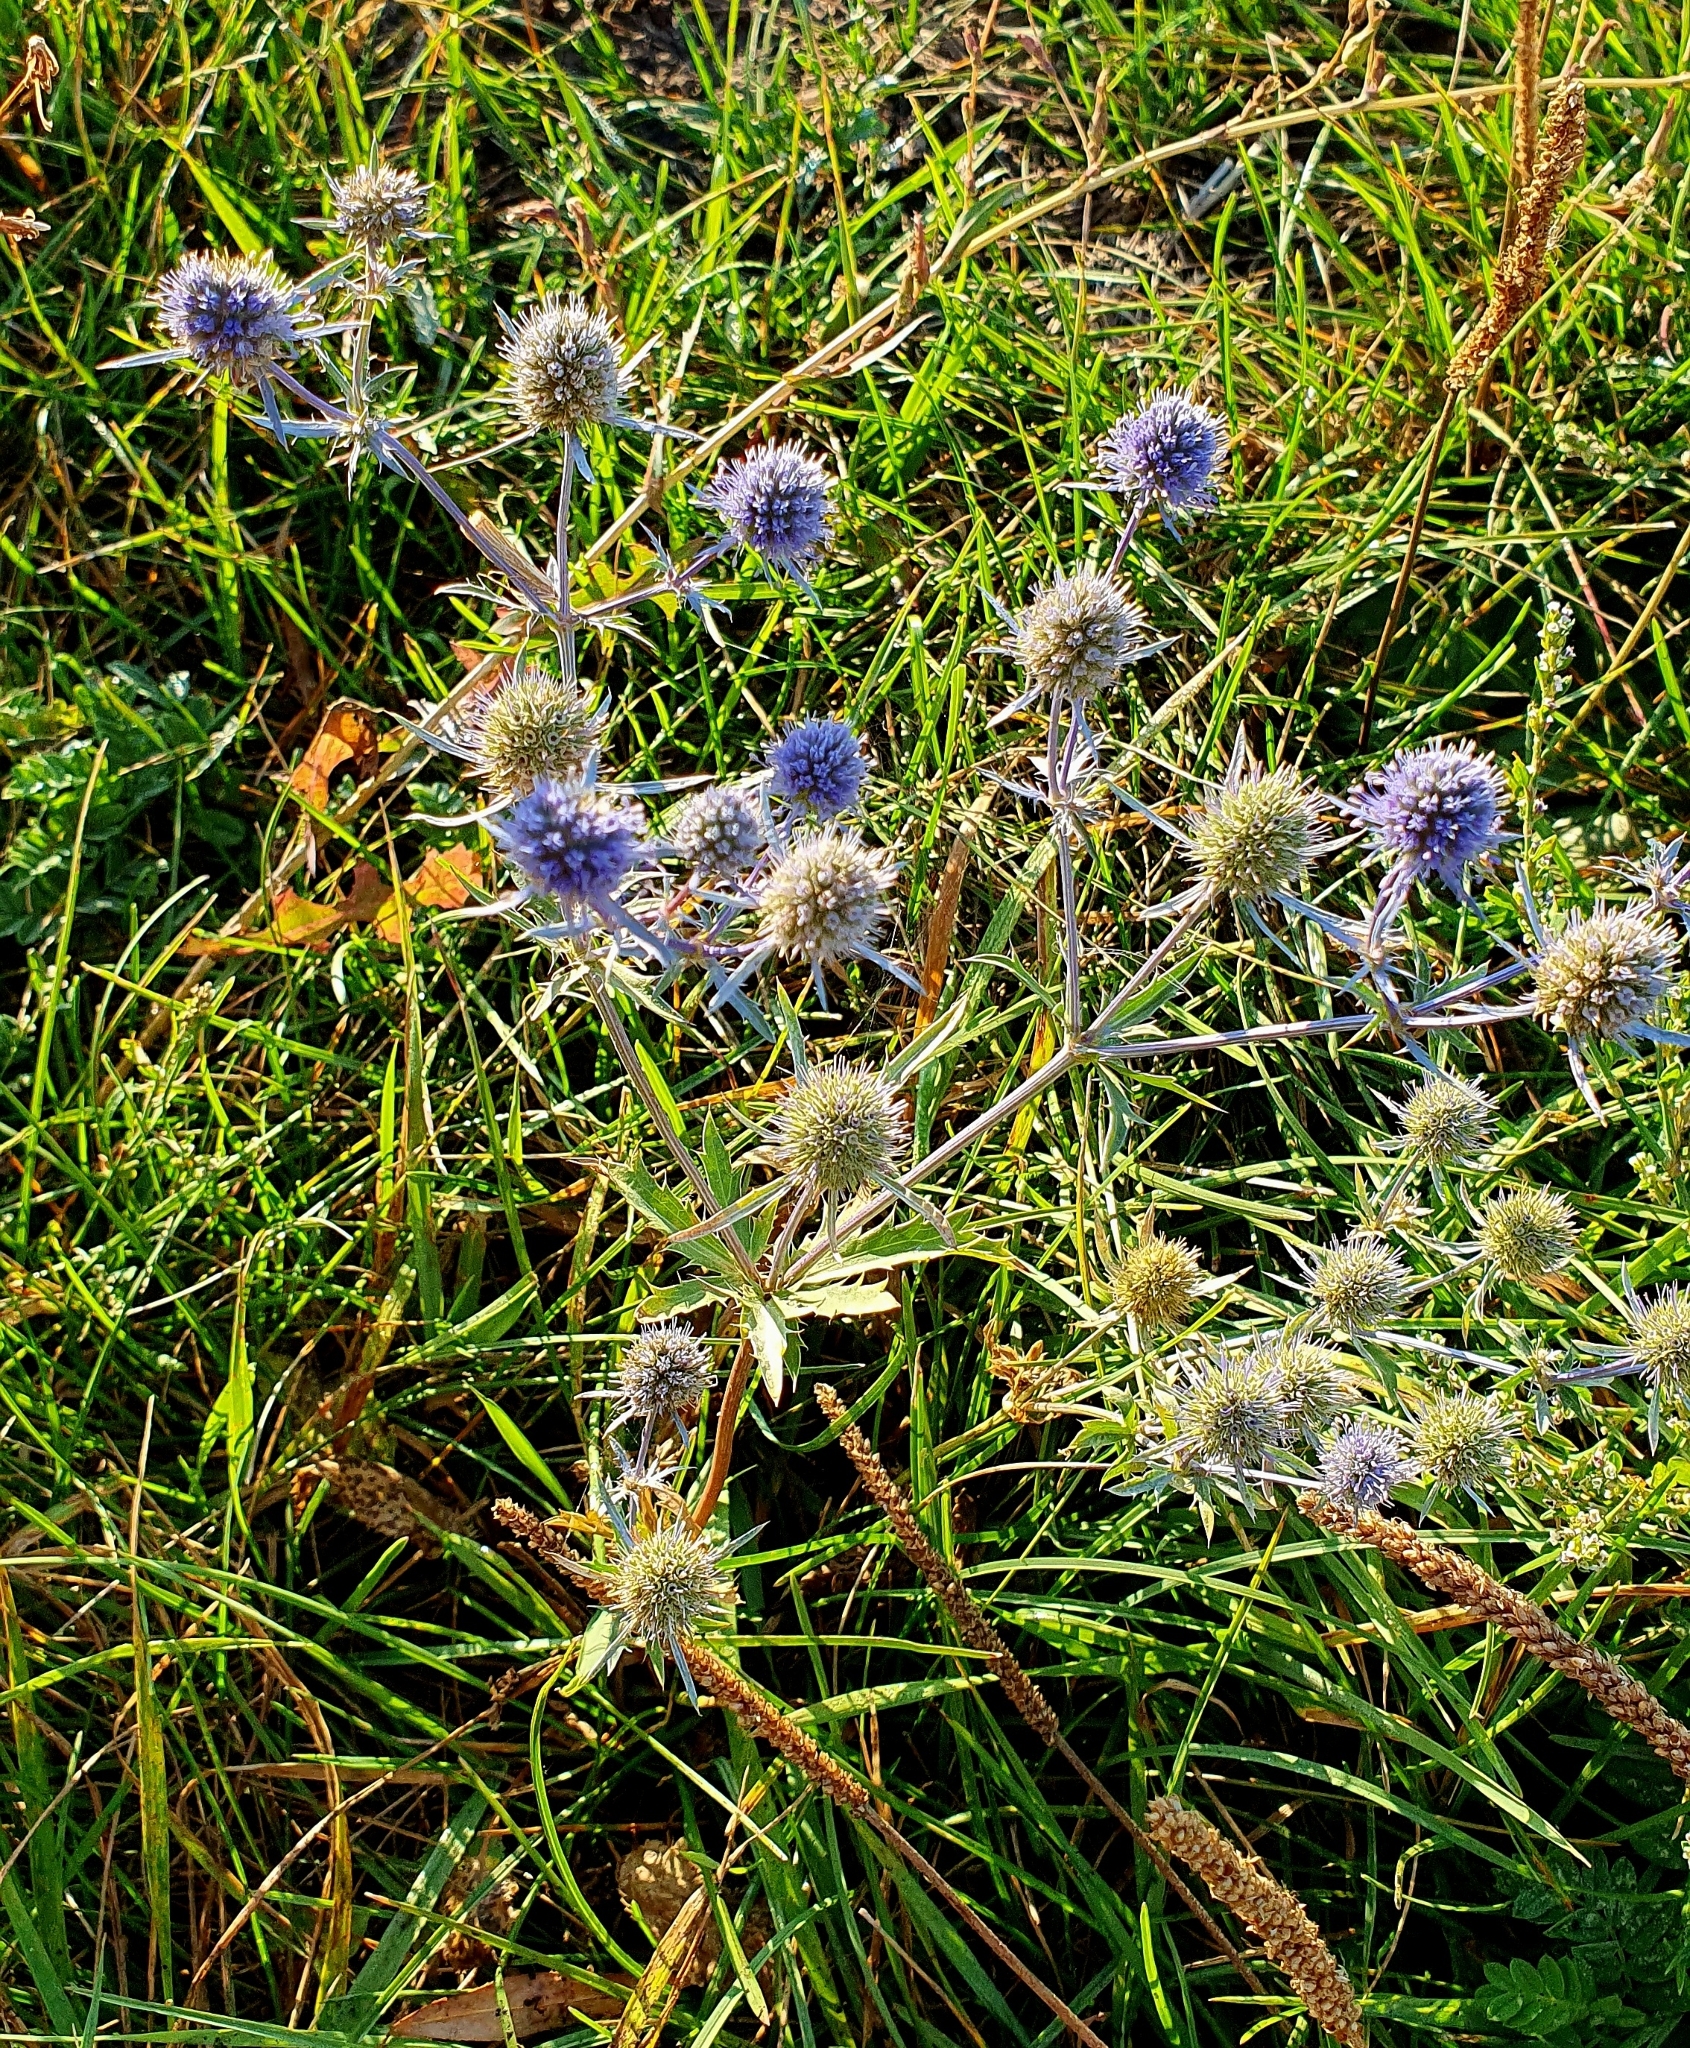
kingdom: Plantae
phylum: Tracheophyta
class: Magnoliopsida
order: Apiales
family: Apiaceae
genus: Eryngium
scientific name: Eryngium planum
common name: Blue eryngo
